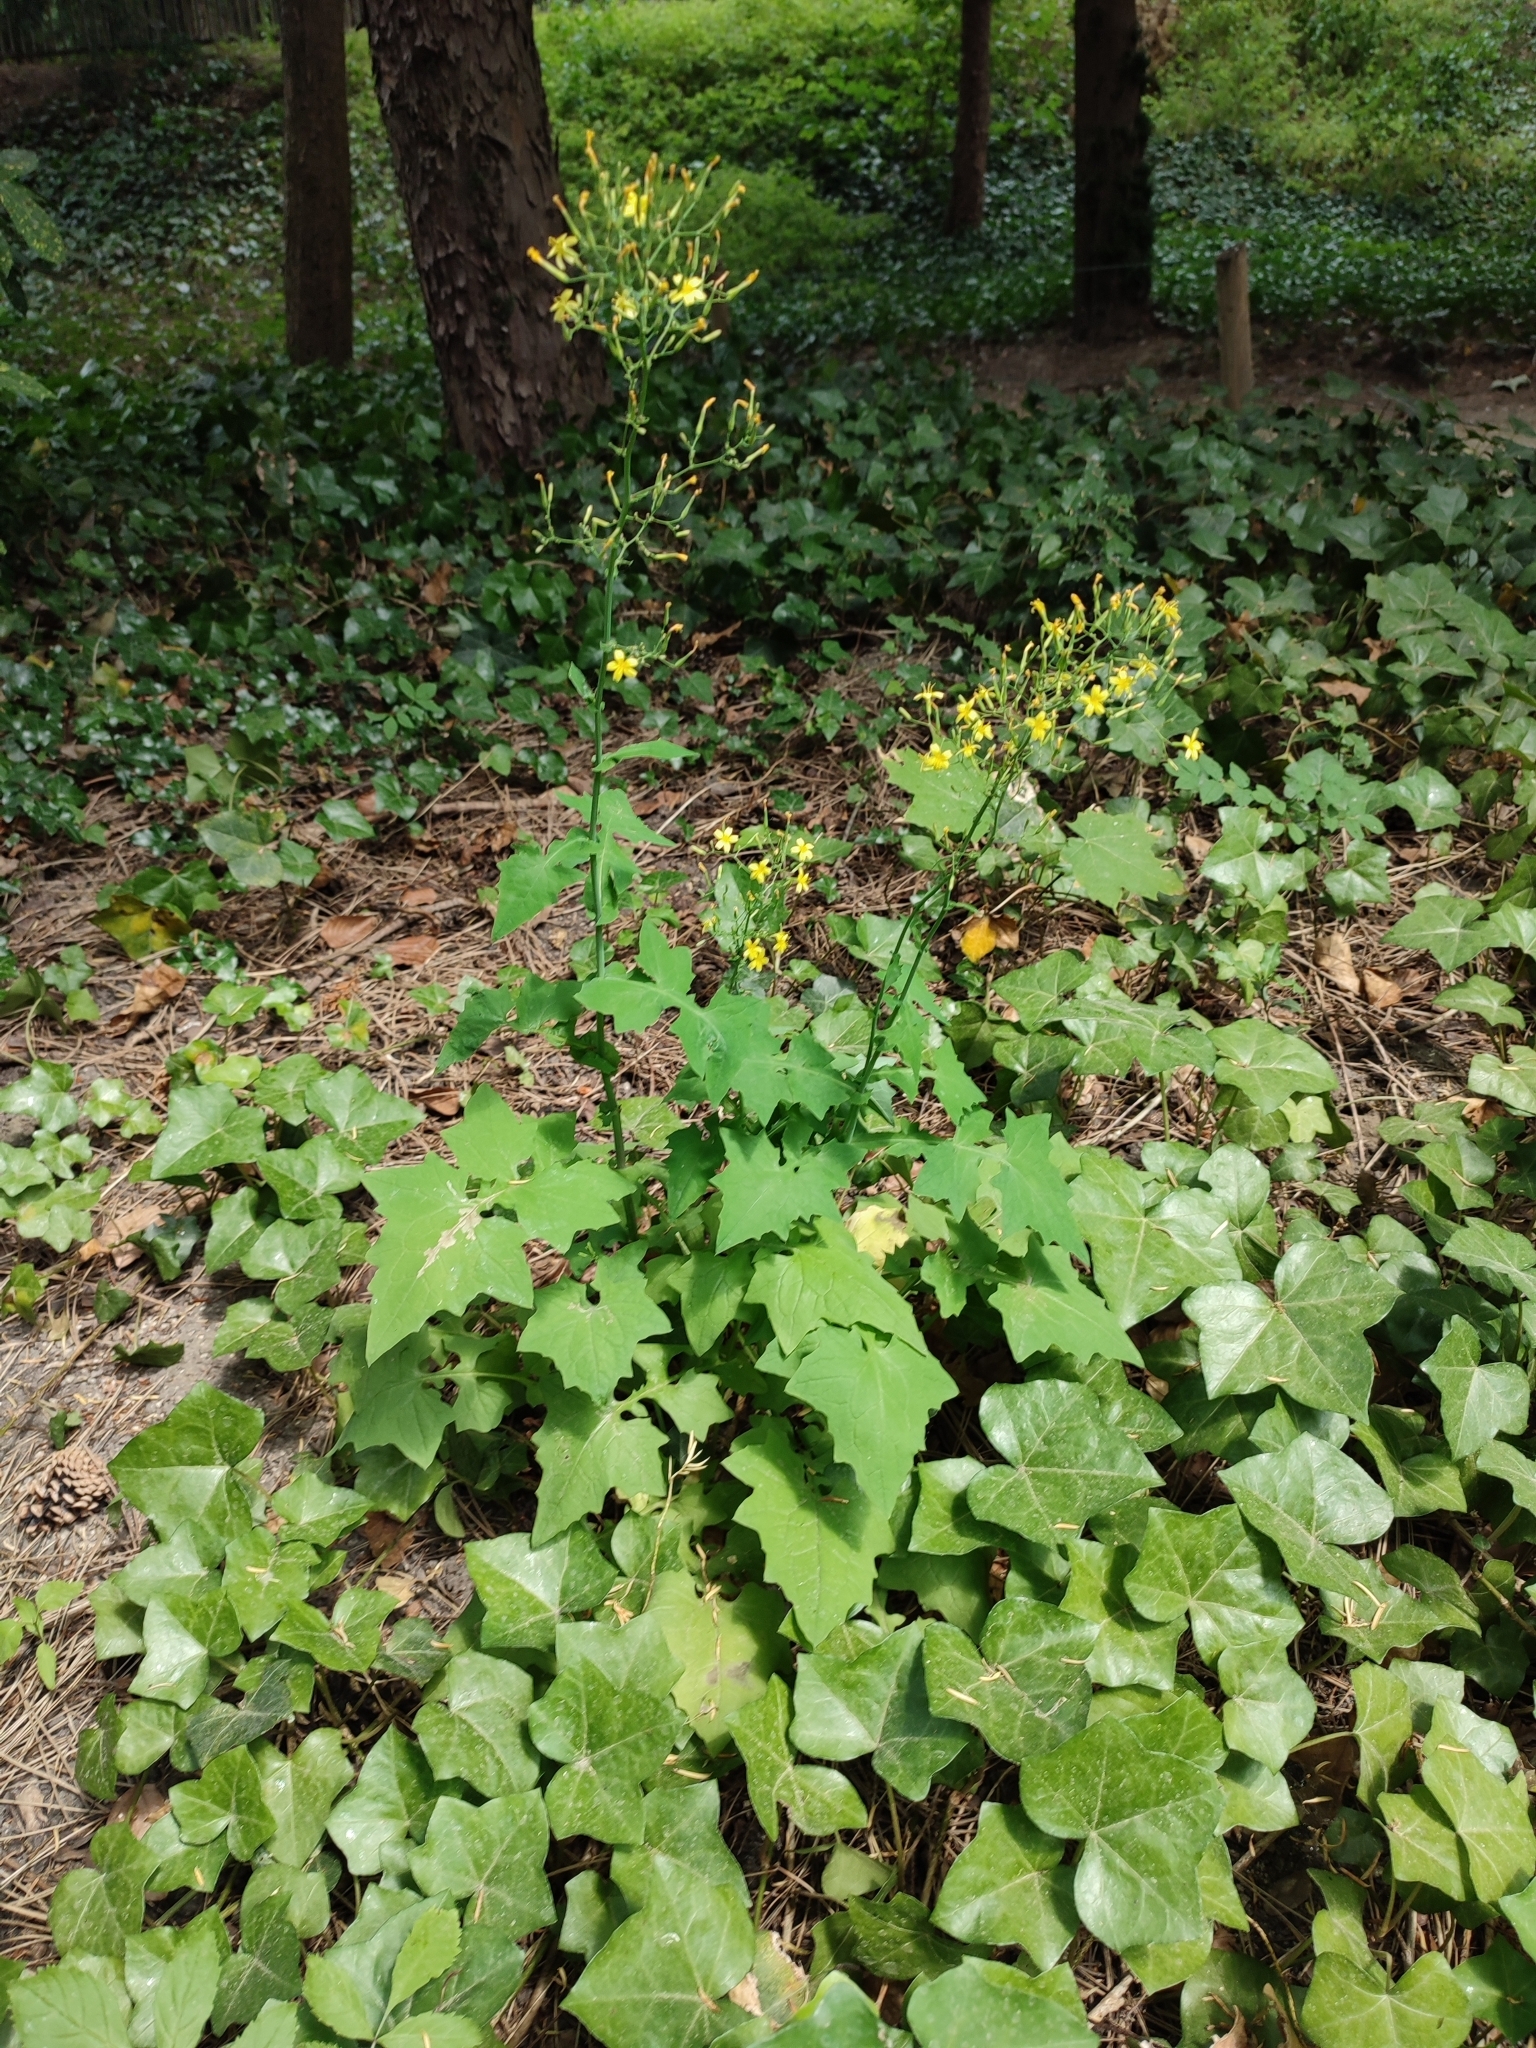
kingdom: Plantae
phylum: Tracheophyta
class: Magnoliopsida
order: Asterales
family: Asteraceae
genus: Mycelis
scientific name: Mycelis muralis
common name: Wall lettuce
